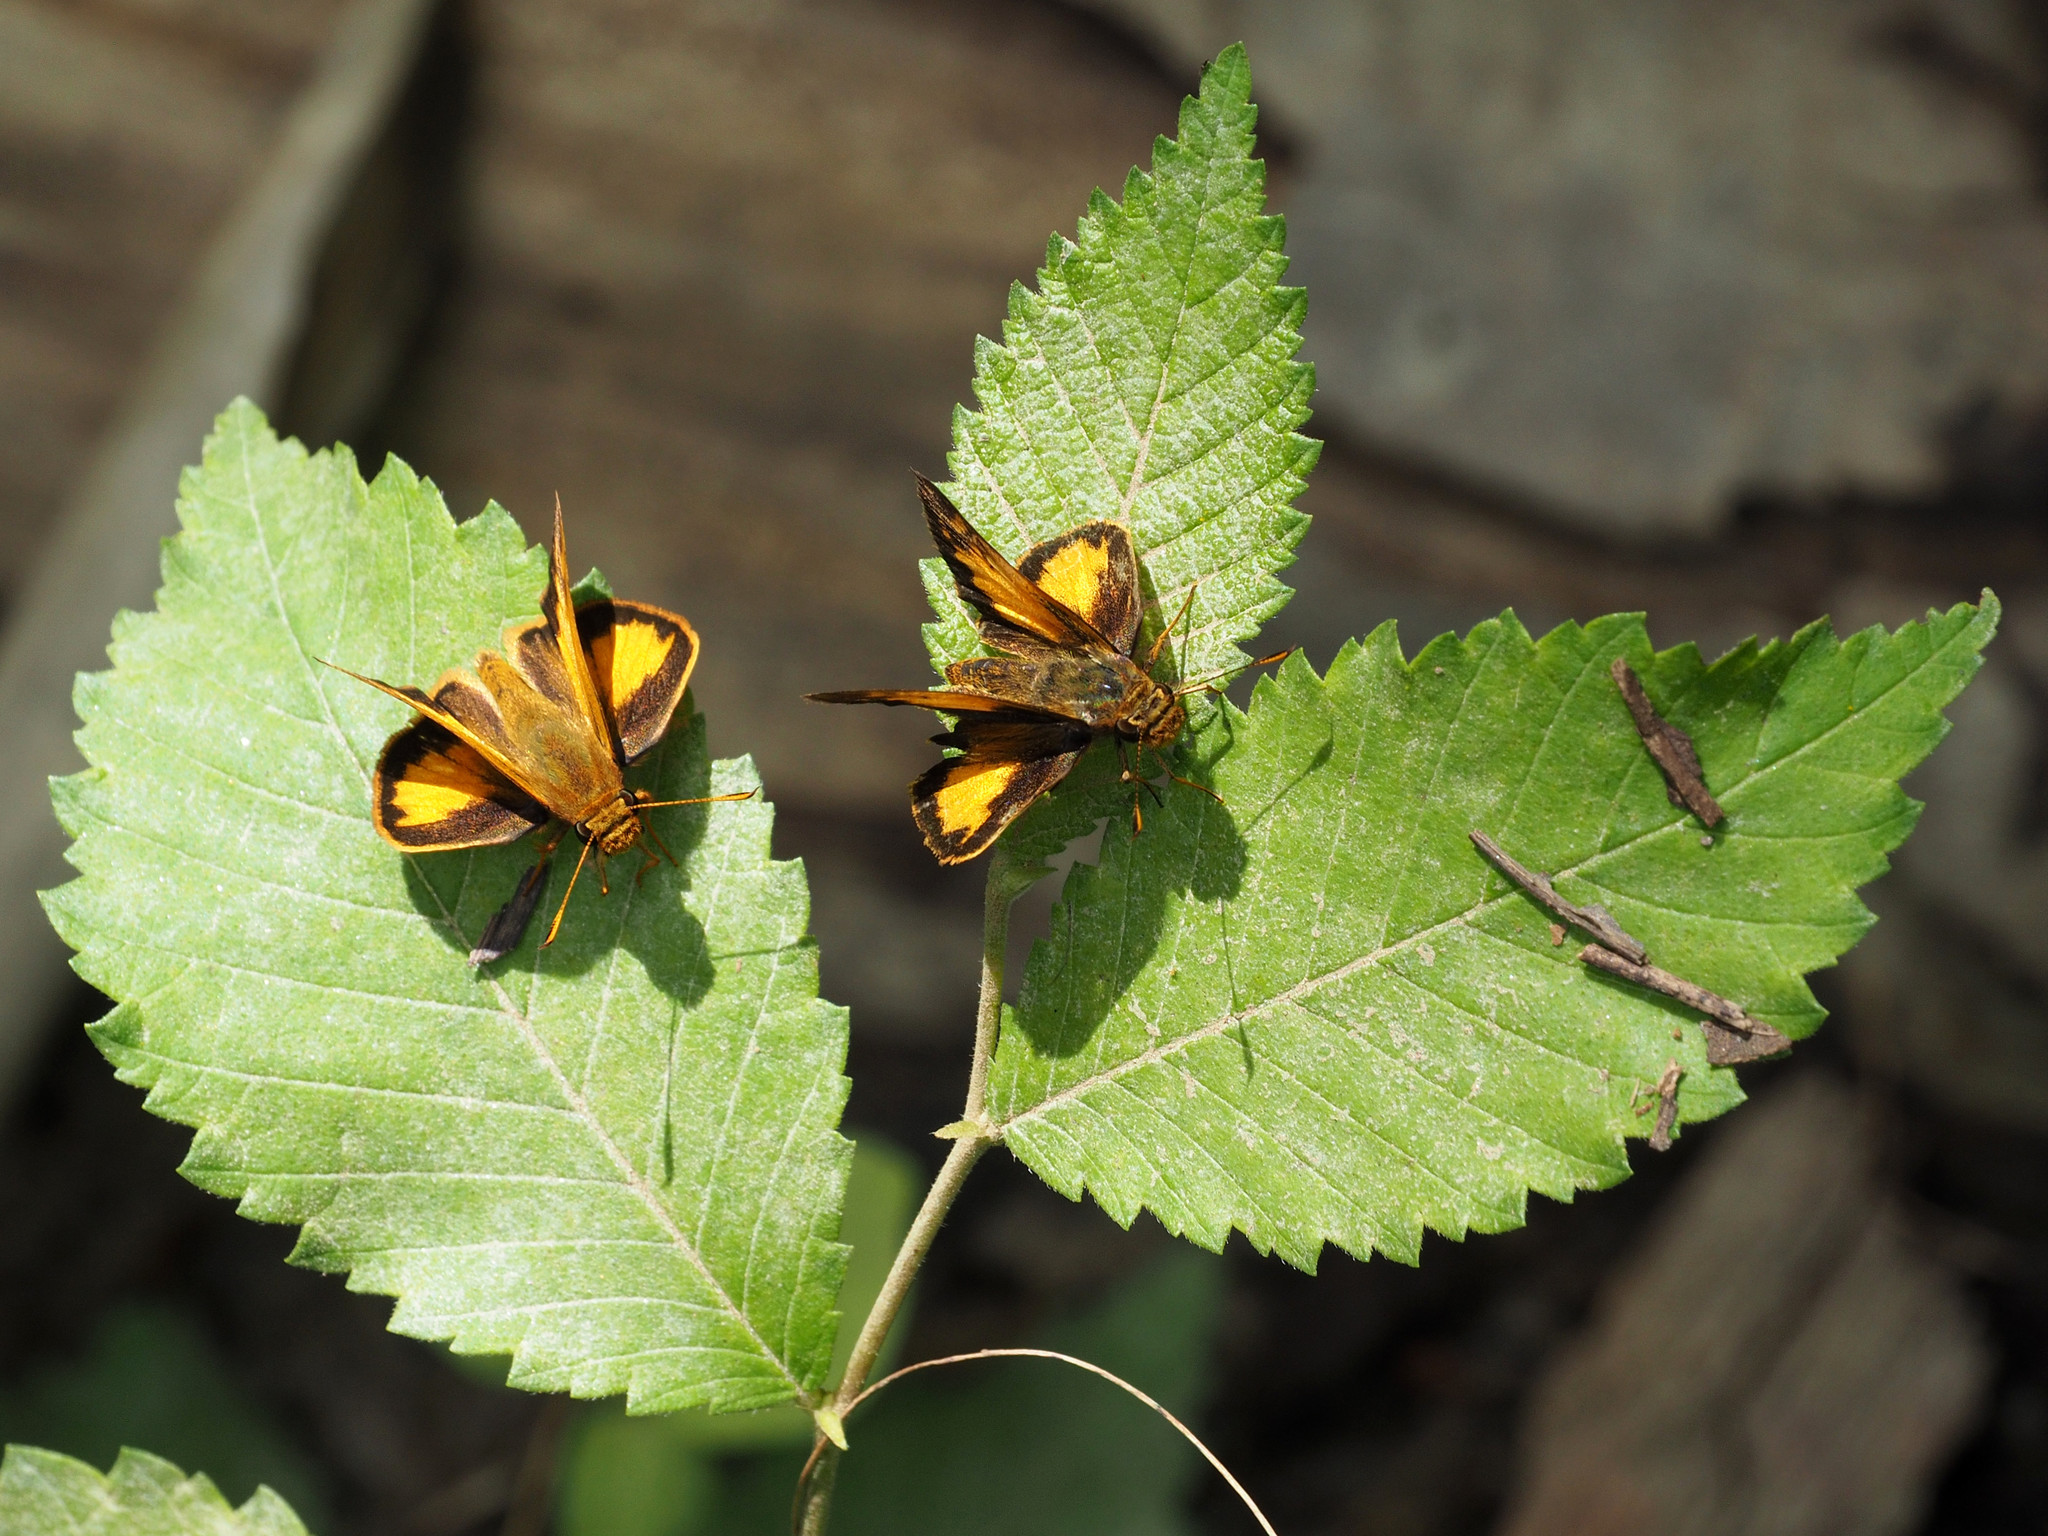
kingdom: Animalia
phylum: Arthropoda
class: Insecta
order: Lepidoptera
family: Hesperiidae
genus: Lon
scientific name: Lon zabulon
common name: Zabulon skipper
